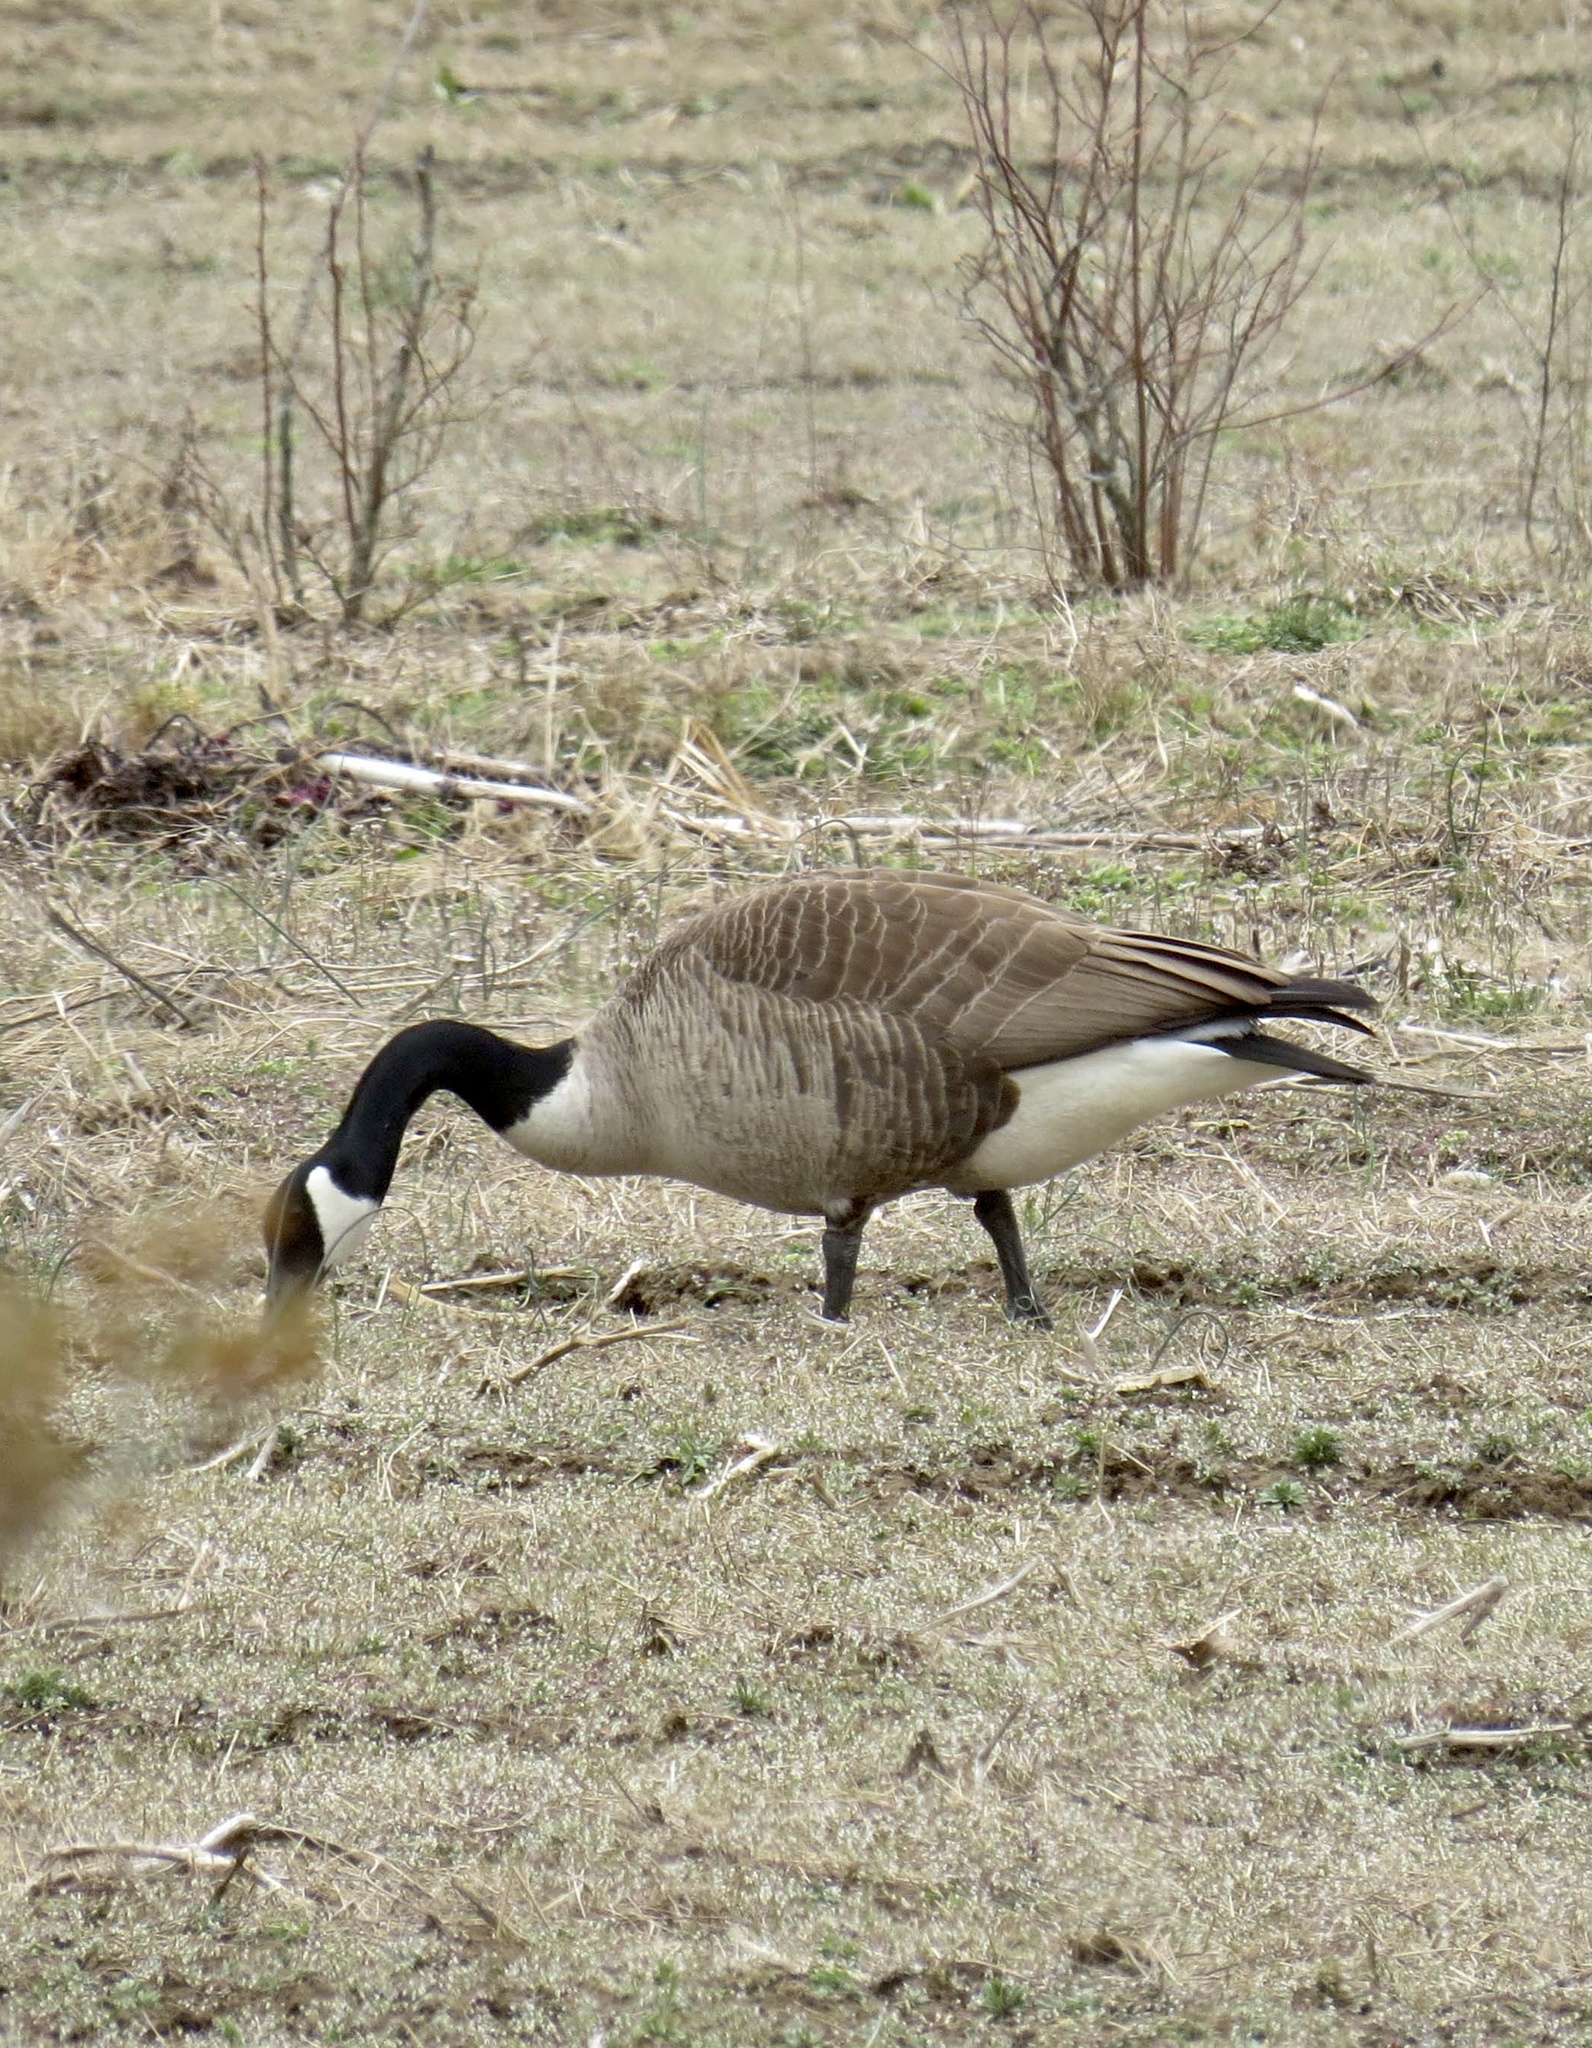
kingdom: Animalia
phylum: Chordata
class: Aves
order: Anseriformes
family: Anatidae
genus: Branta
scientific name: Branta canadensis
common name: Canada goose
